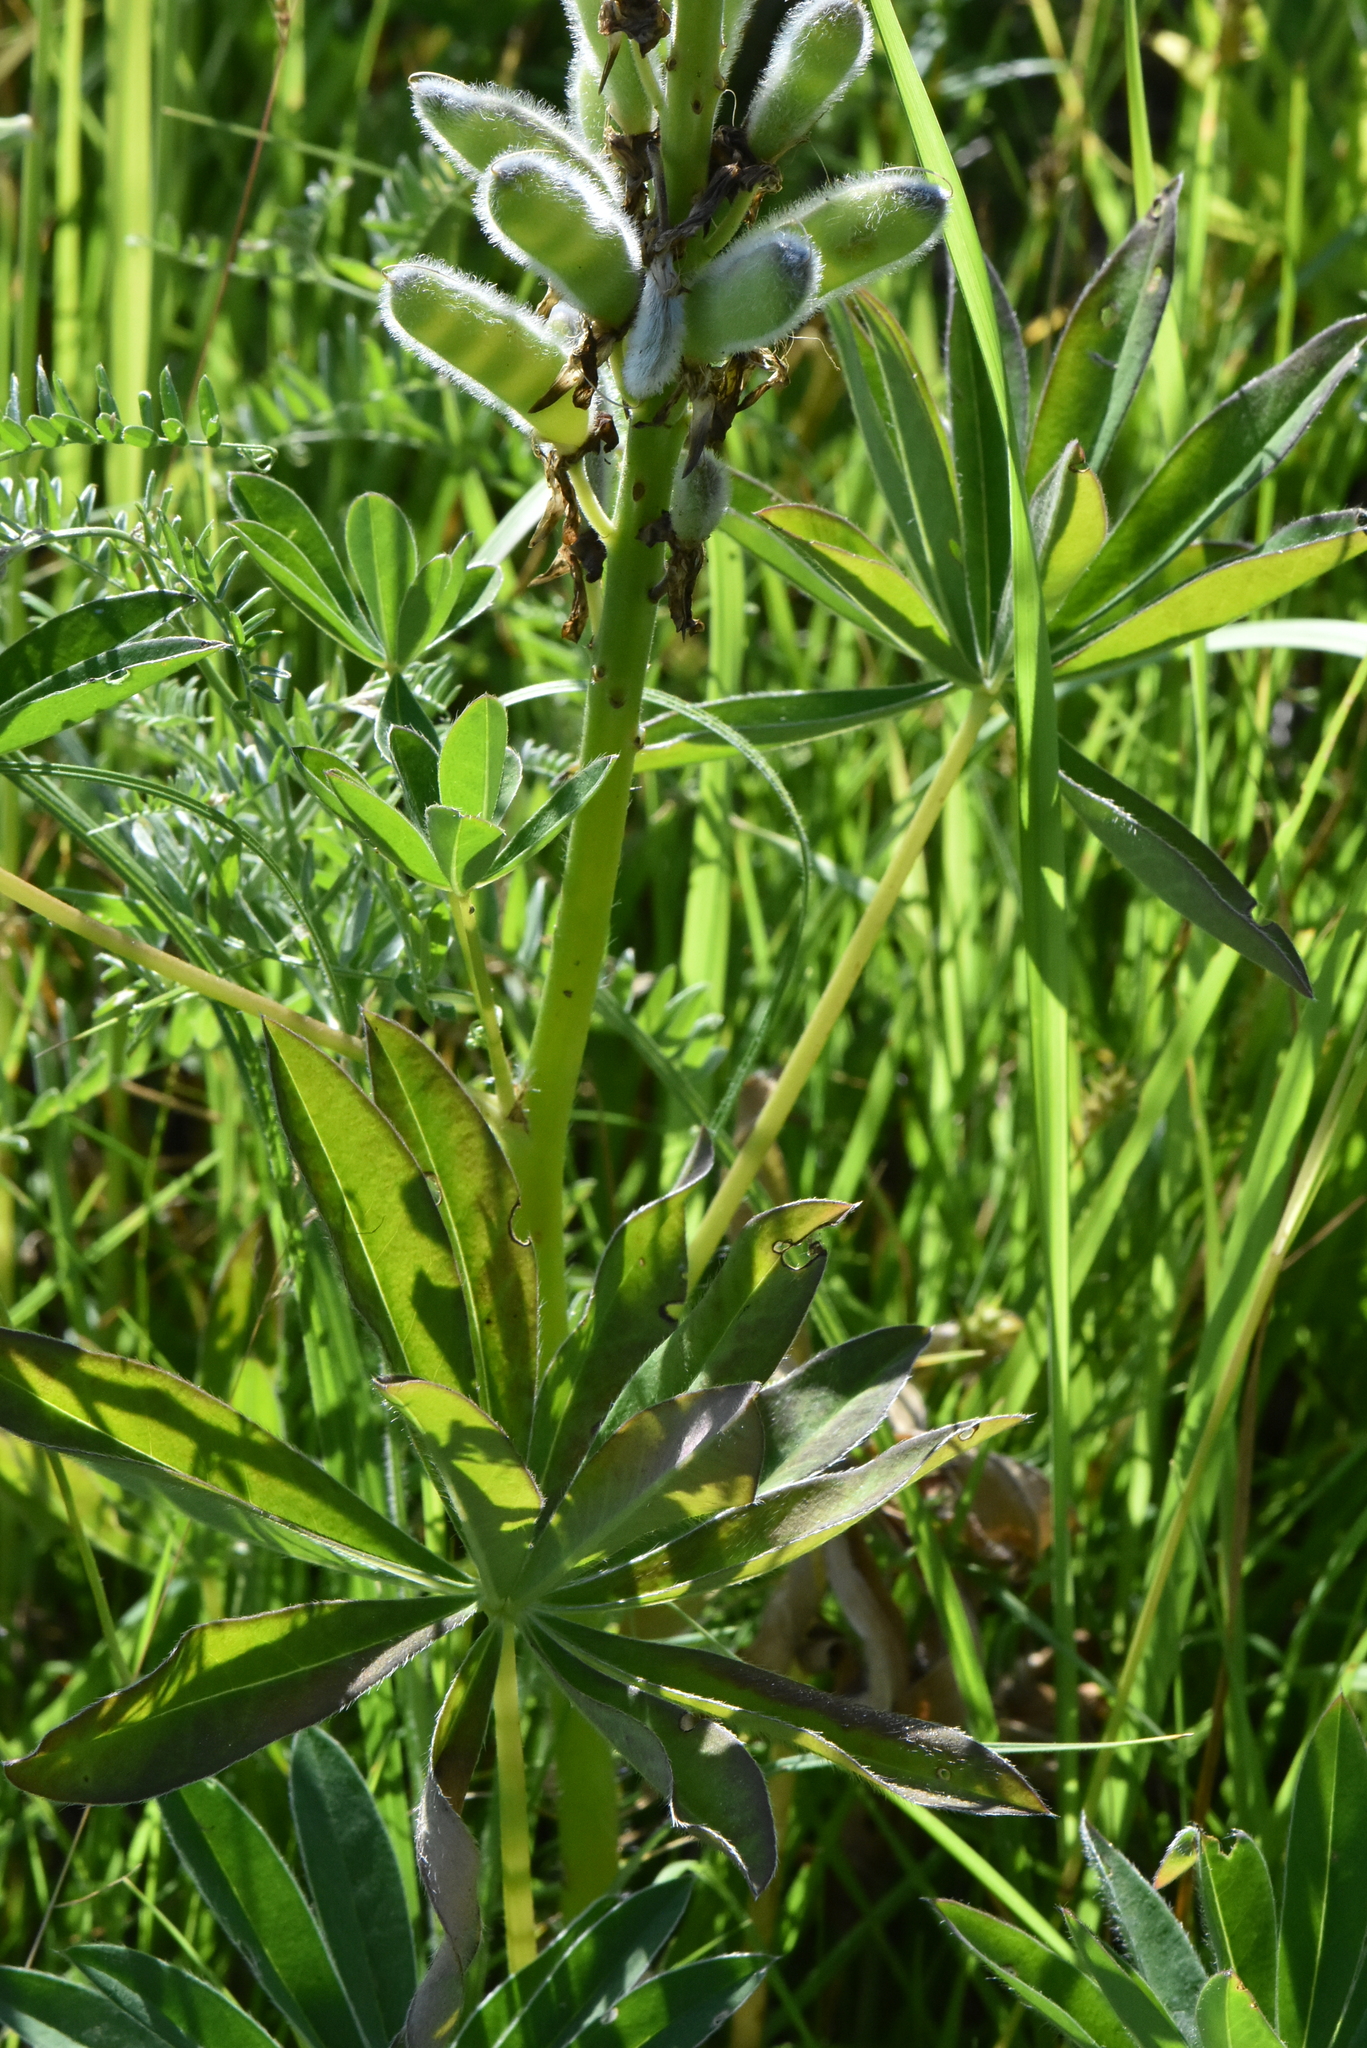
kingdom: Plantae
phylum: Tracheophyta
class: Magnoliopsida
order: Fabales
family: Fabaceae
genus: Lupinus
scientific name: Lupinus polyphyllus
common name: Garden lupin
